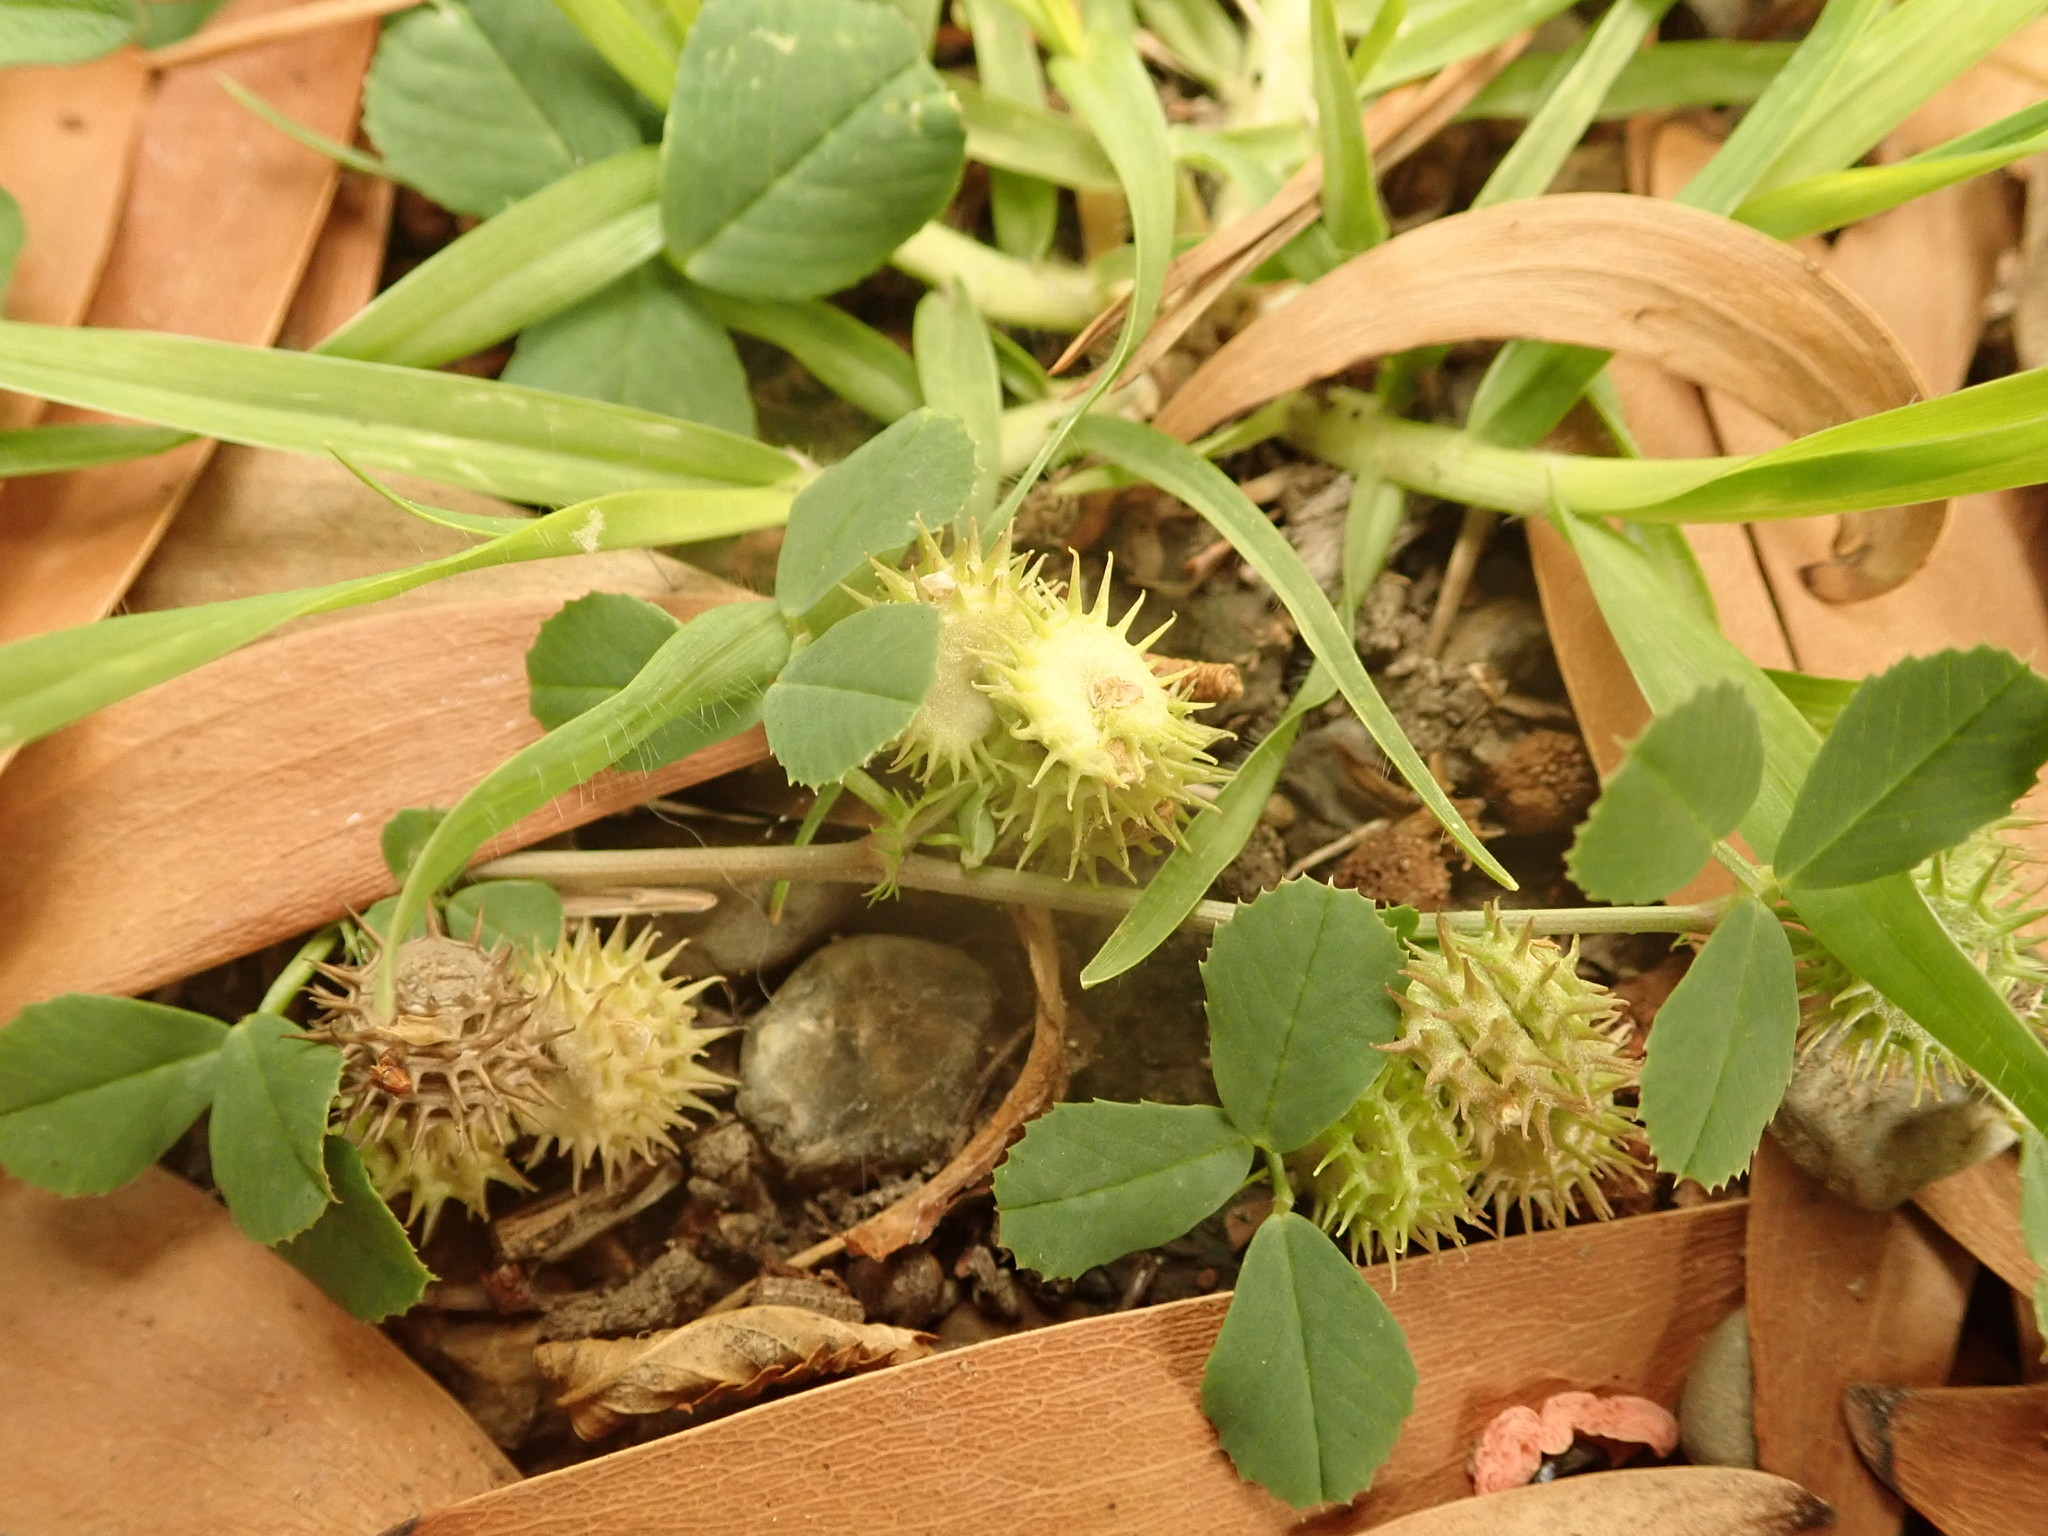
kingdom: Plantae
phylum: Tracheophyta
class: Magnoliopsida
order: Fabales
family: Fabaceae
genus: Medicago
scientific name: Medicago polymorpha
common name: Burclover
